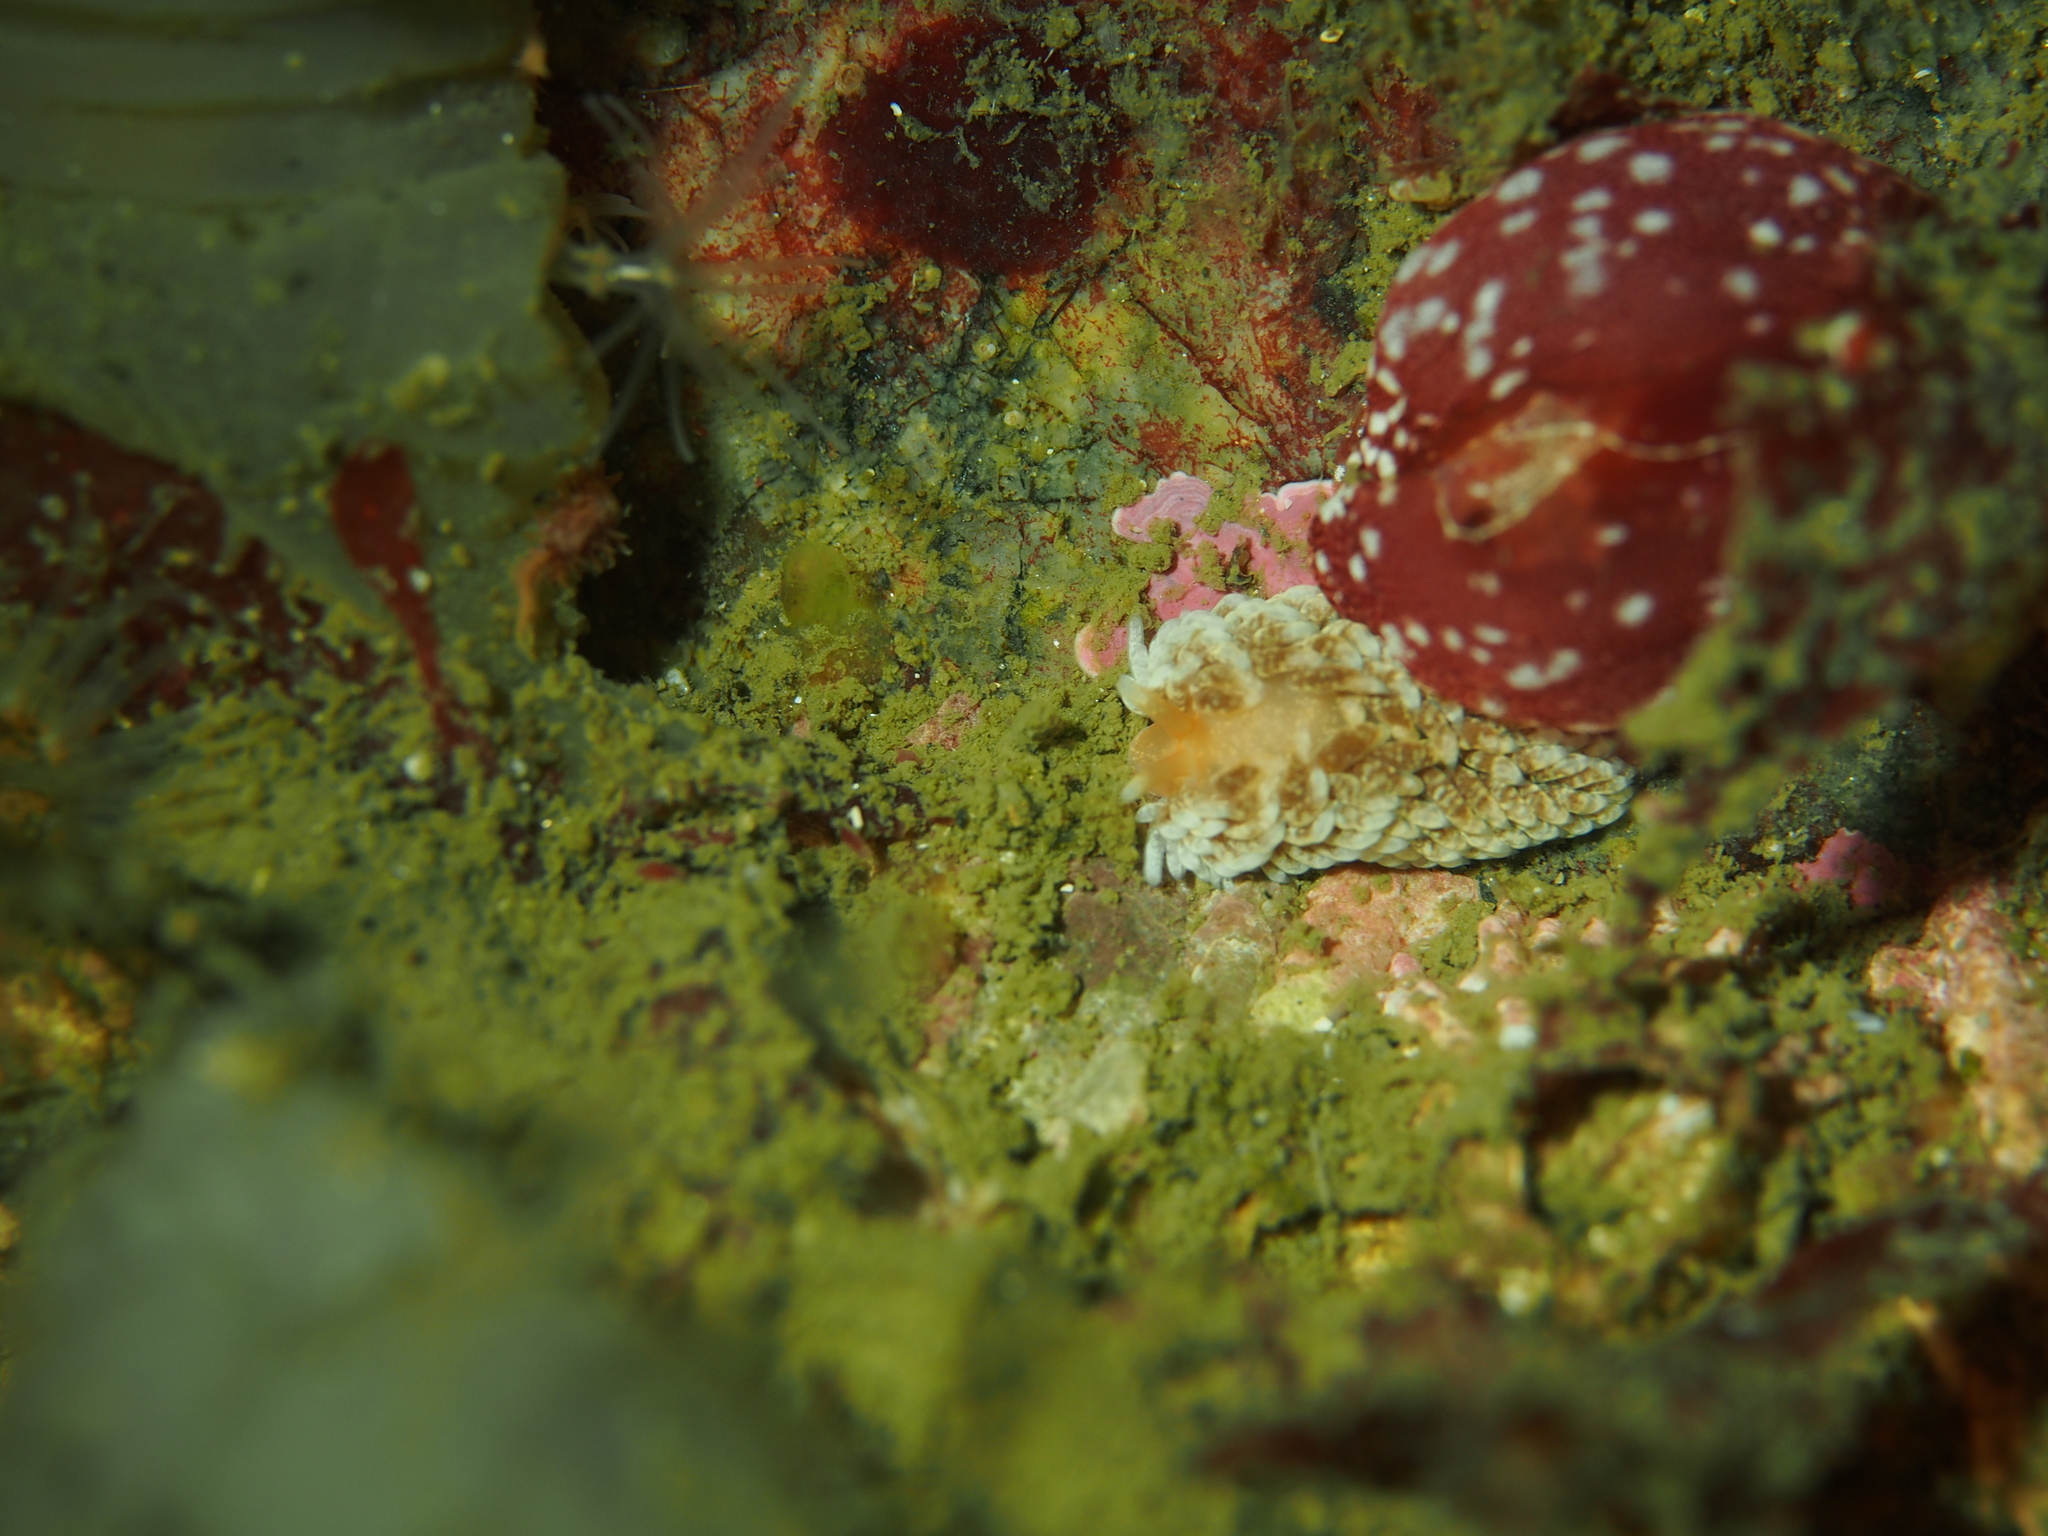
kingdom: Animalia
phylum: Mollusca
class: Gastropoda
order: Nudibranchia
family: Aeolidiidae
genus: Aeolidiella
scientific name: Aeolidiella glauca
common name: Orange-brown aeolid
